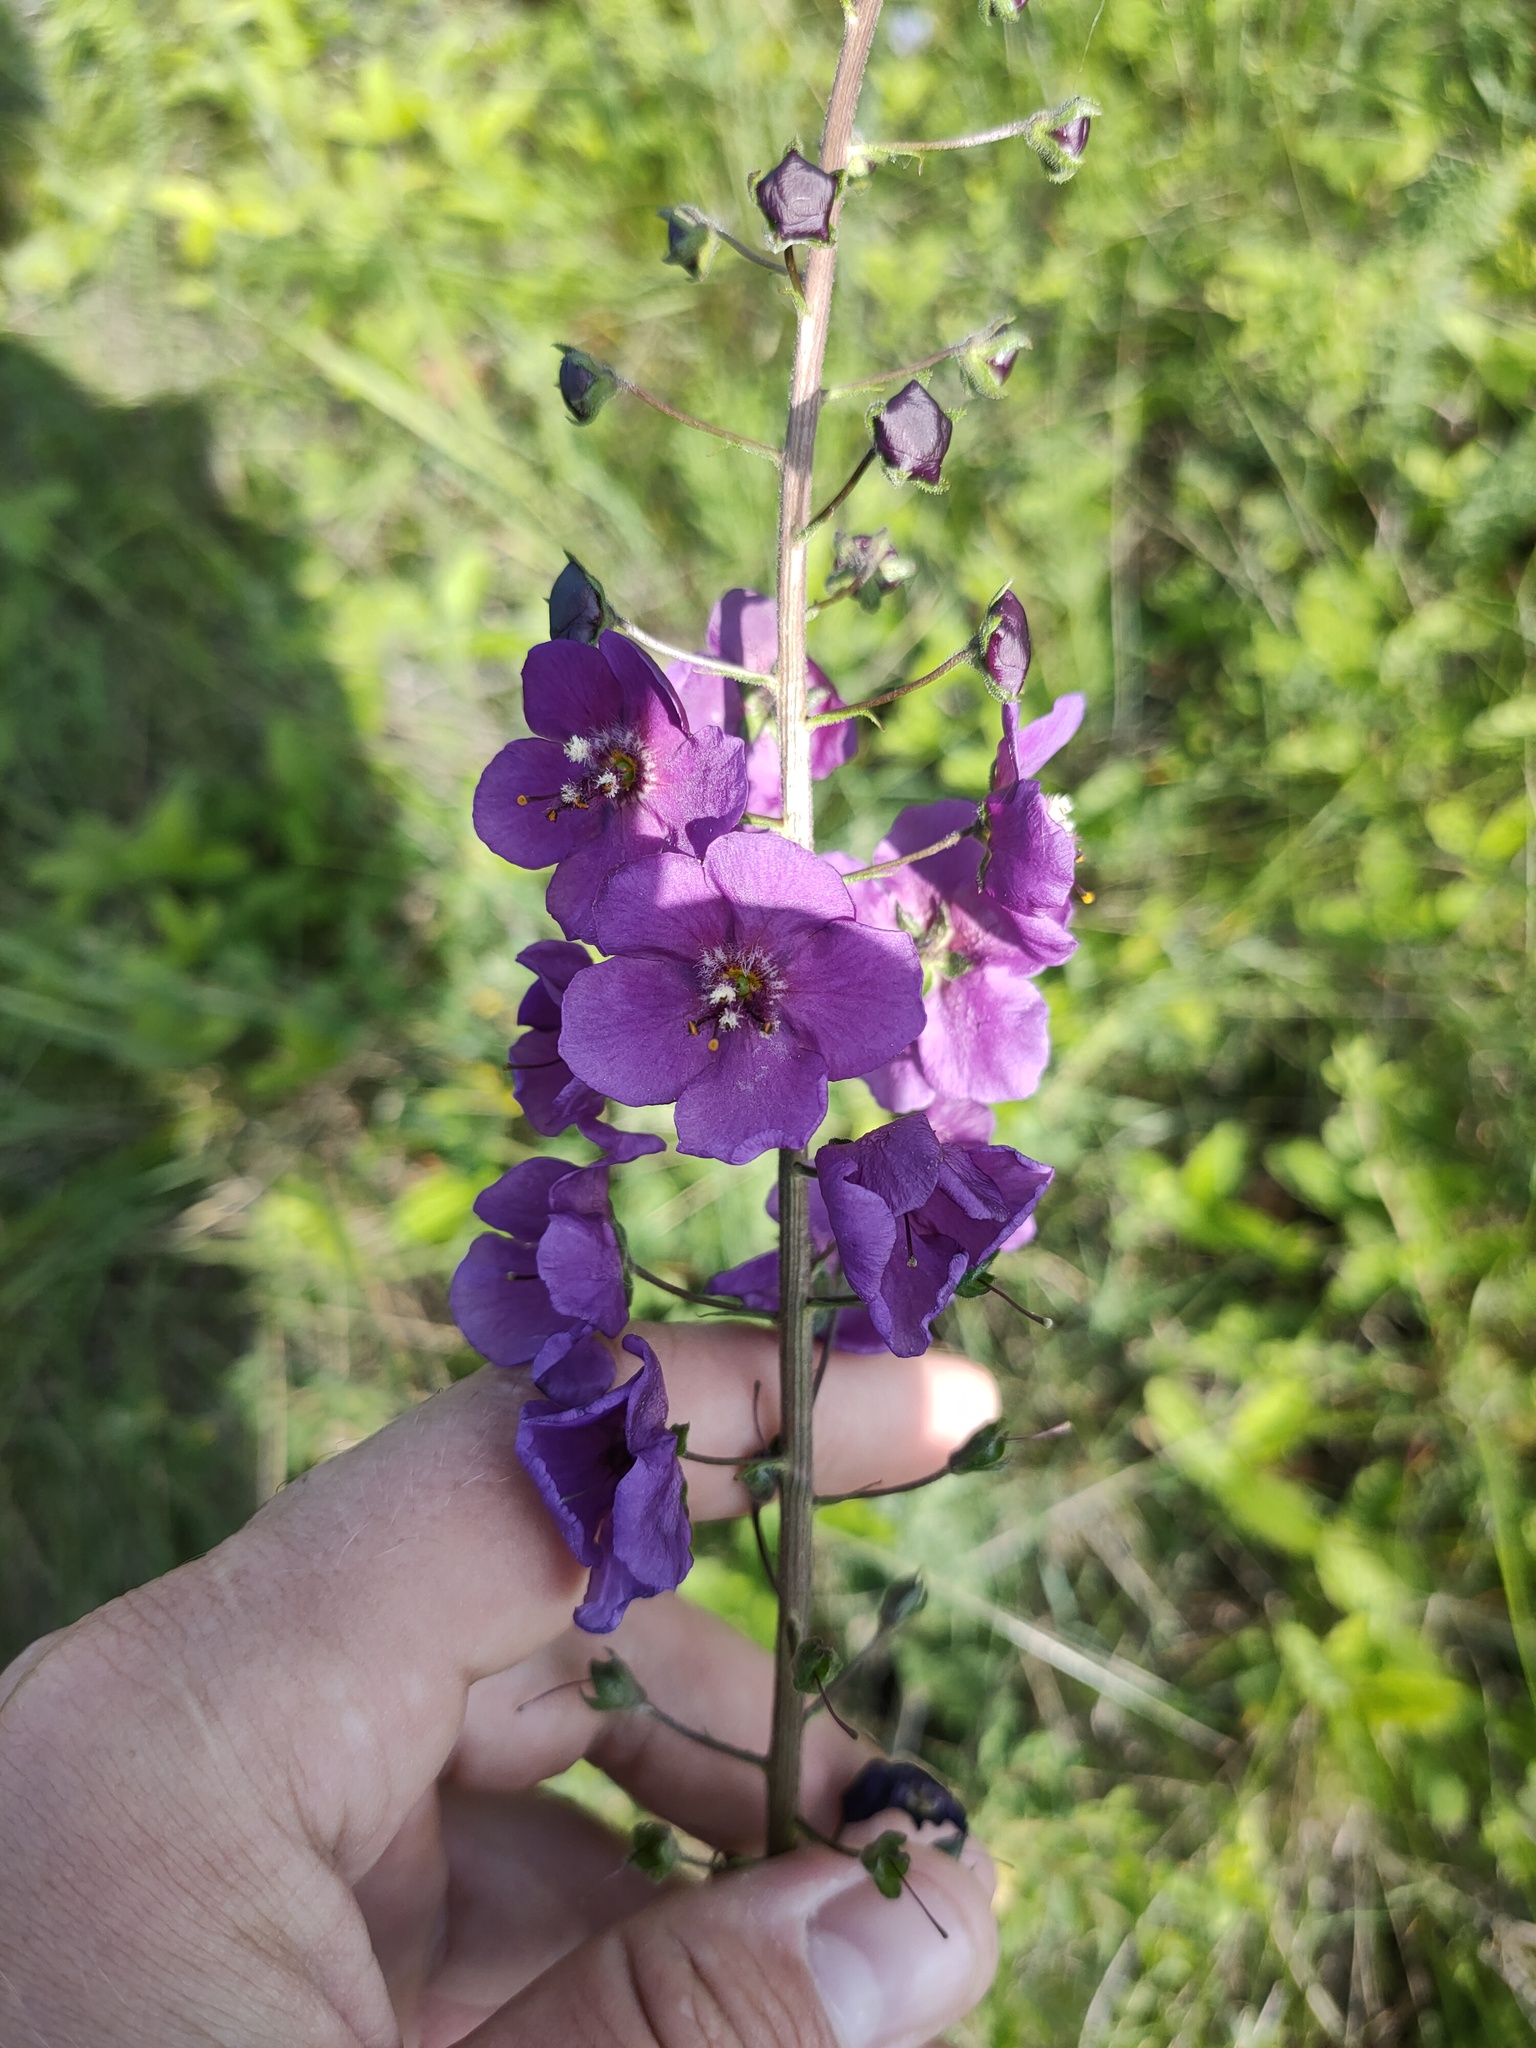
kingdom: Plantae
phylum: Tracheophyta
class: Magnoliopsida
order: Lamiales
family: Scrophulariaceae
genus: Verbascum
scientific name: Verbascum phoeniceum
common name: Purple mullein
